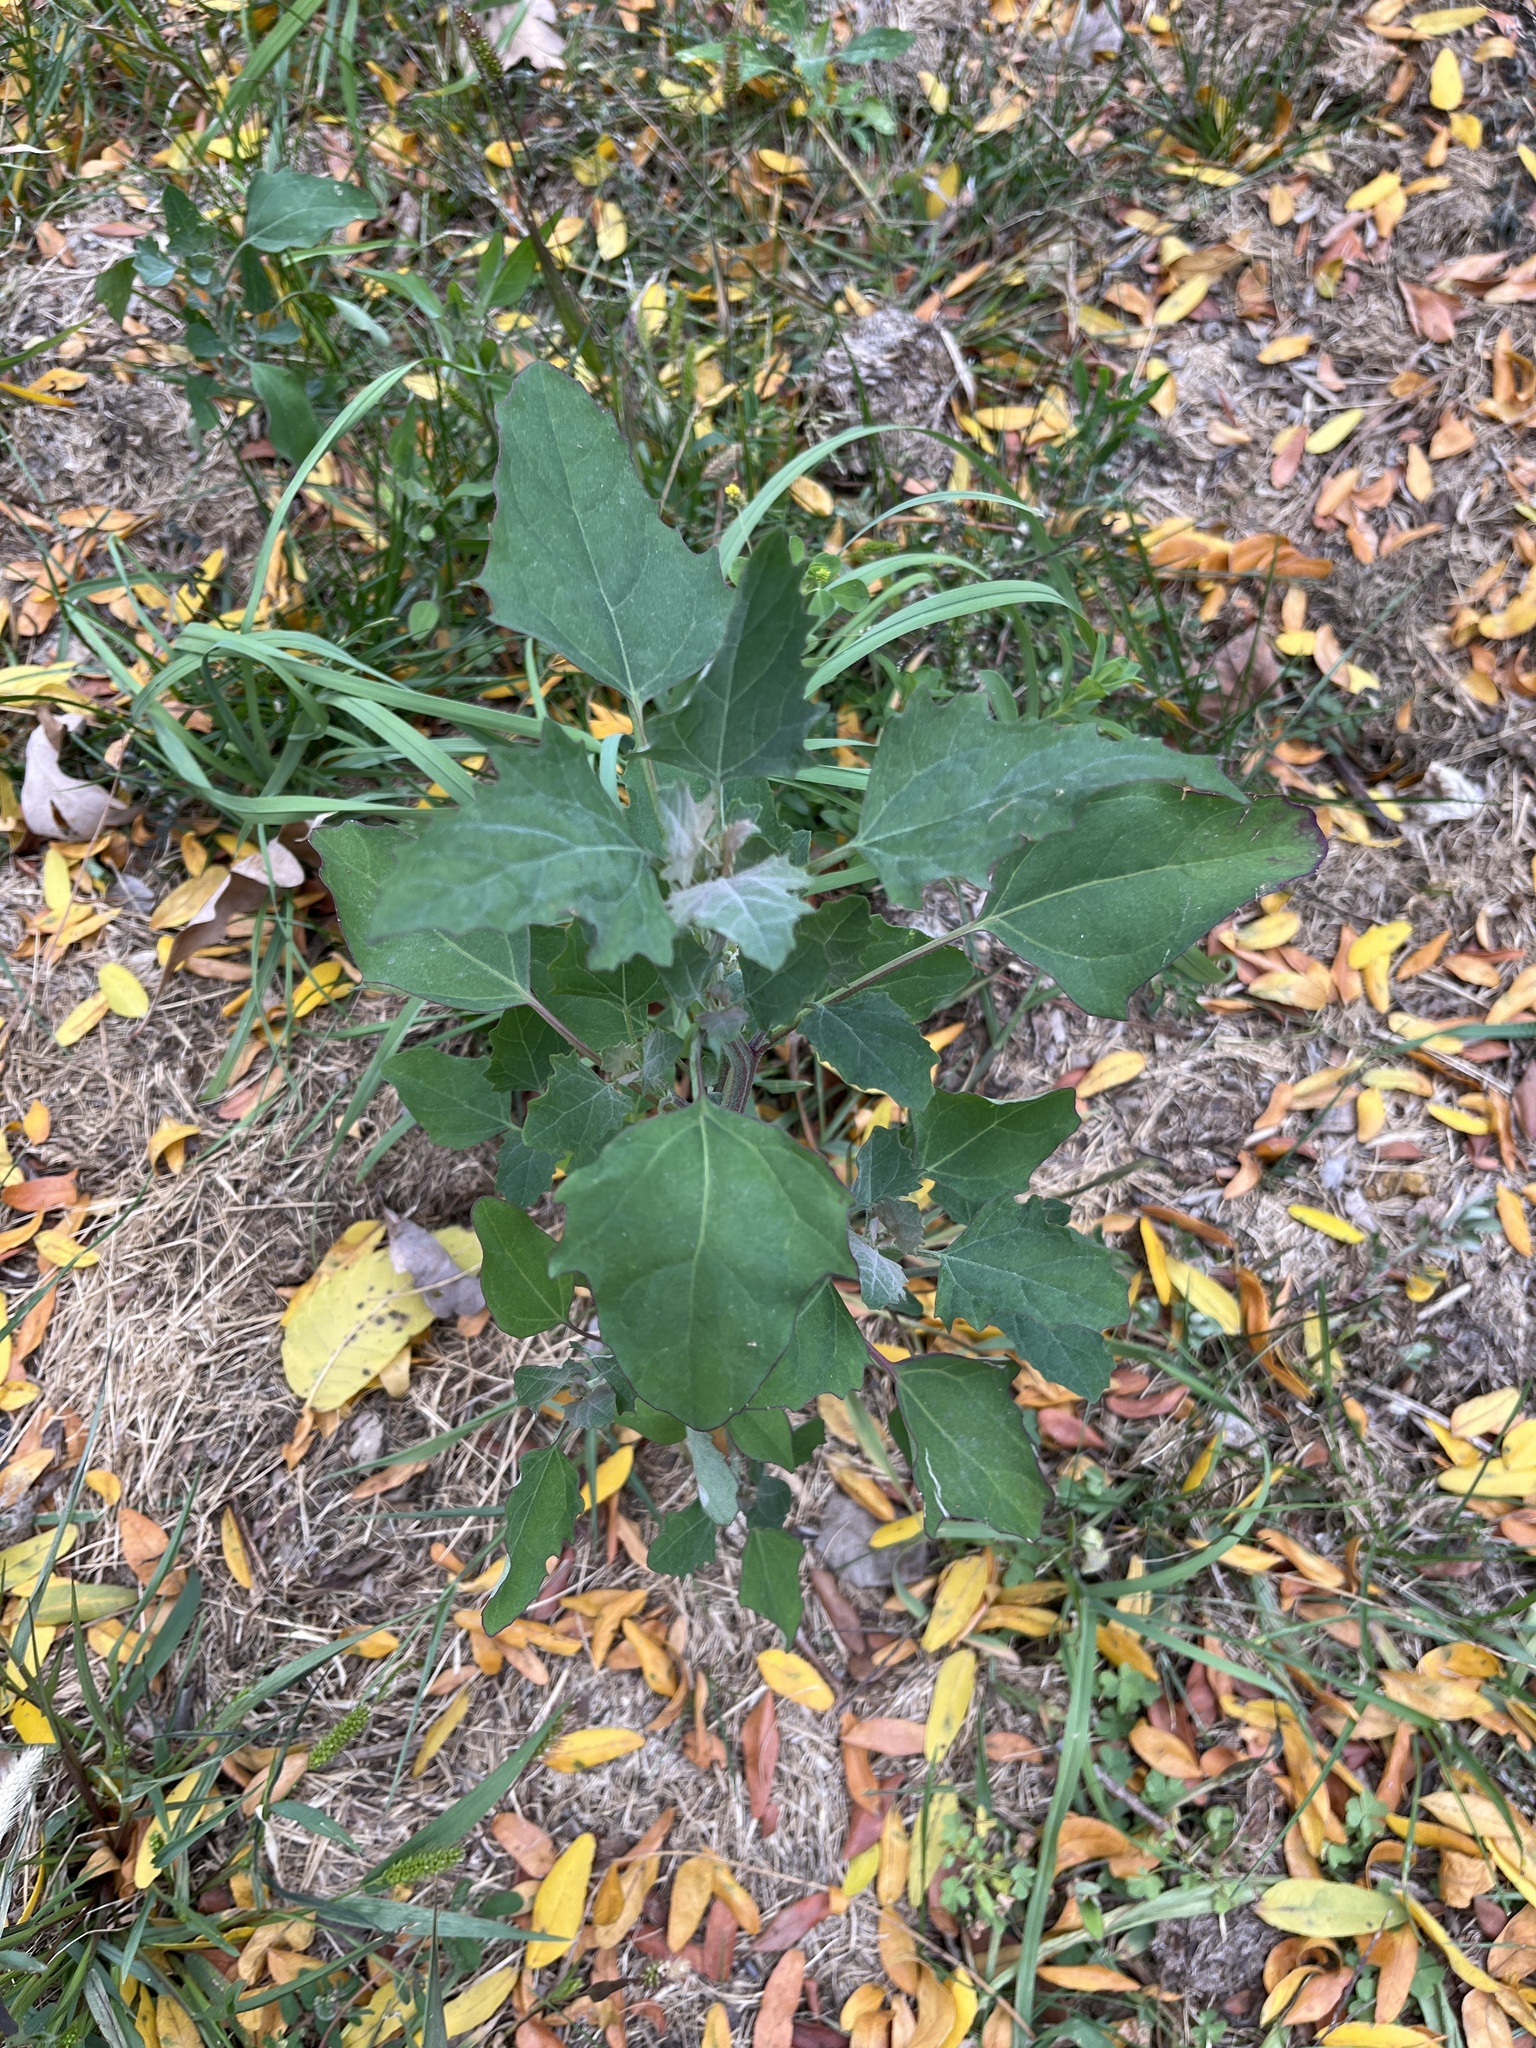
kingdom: Plantae
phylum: Tracheophyta
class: Magnoliopsida
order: Caryophyllales
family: Amaranthaceae
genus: Chenopodium
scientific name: Chenopodium album
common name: Fat-hen
